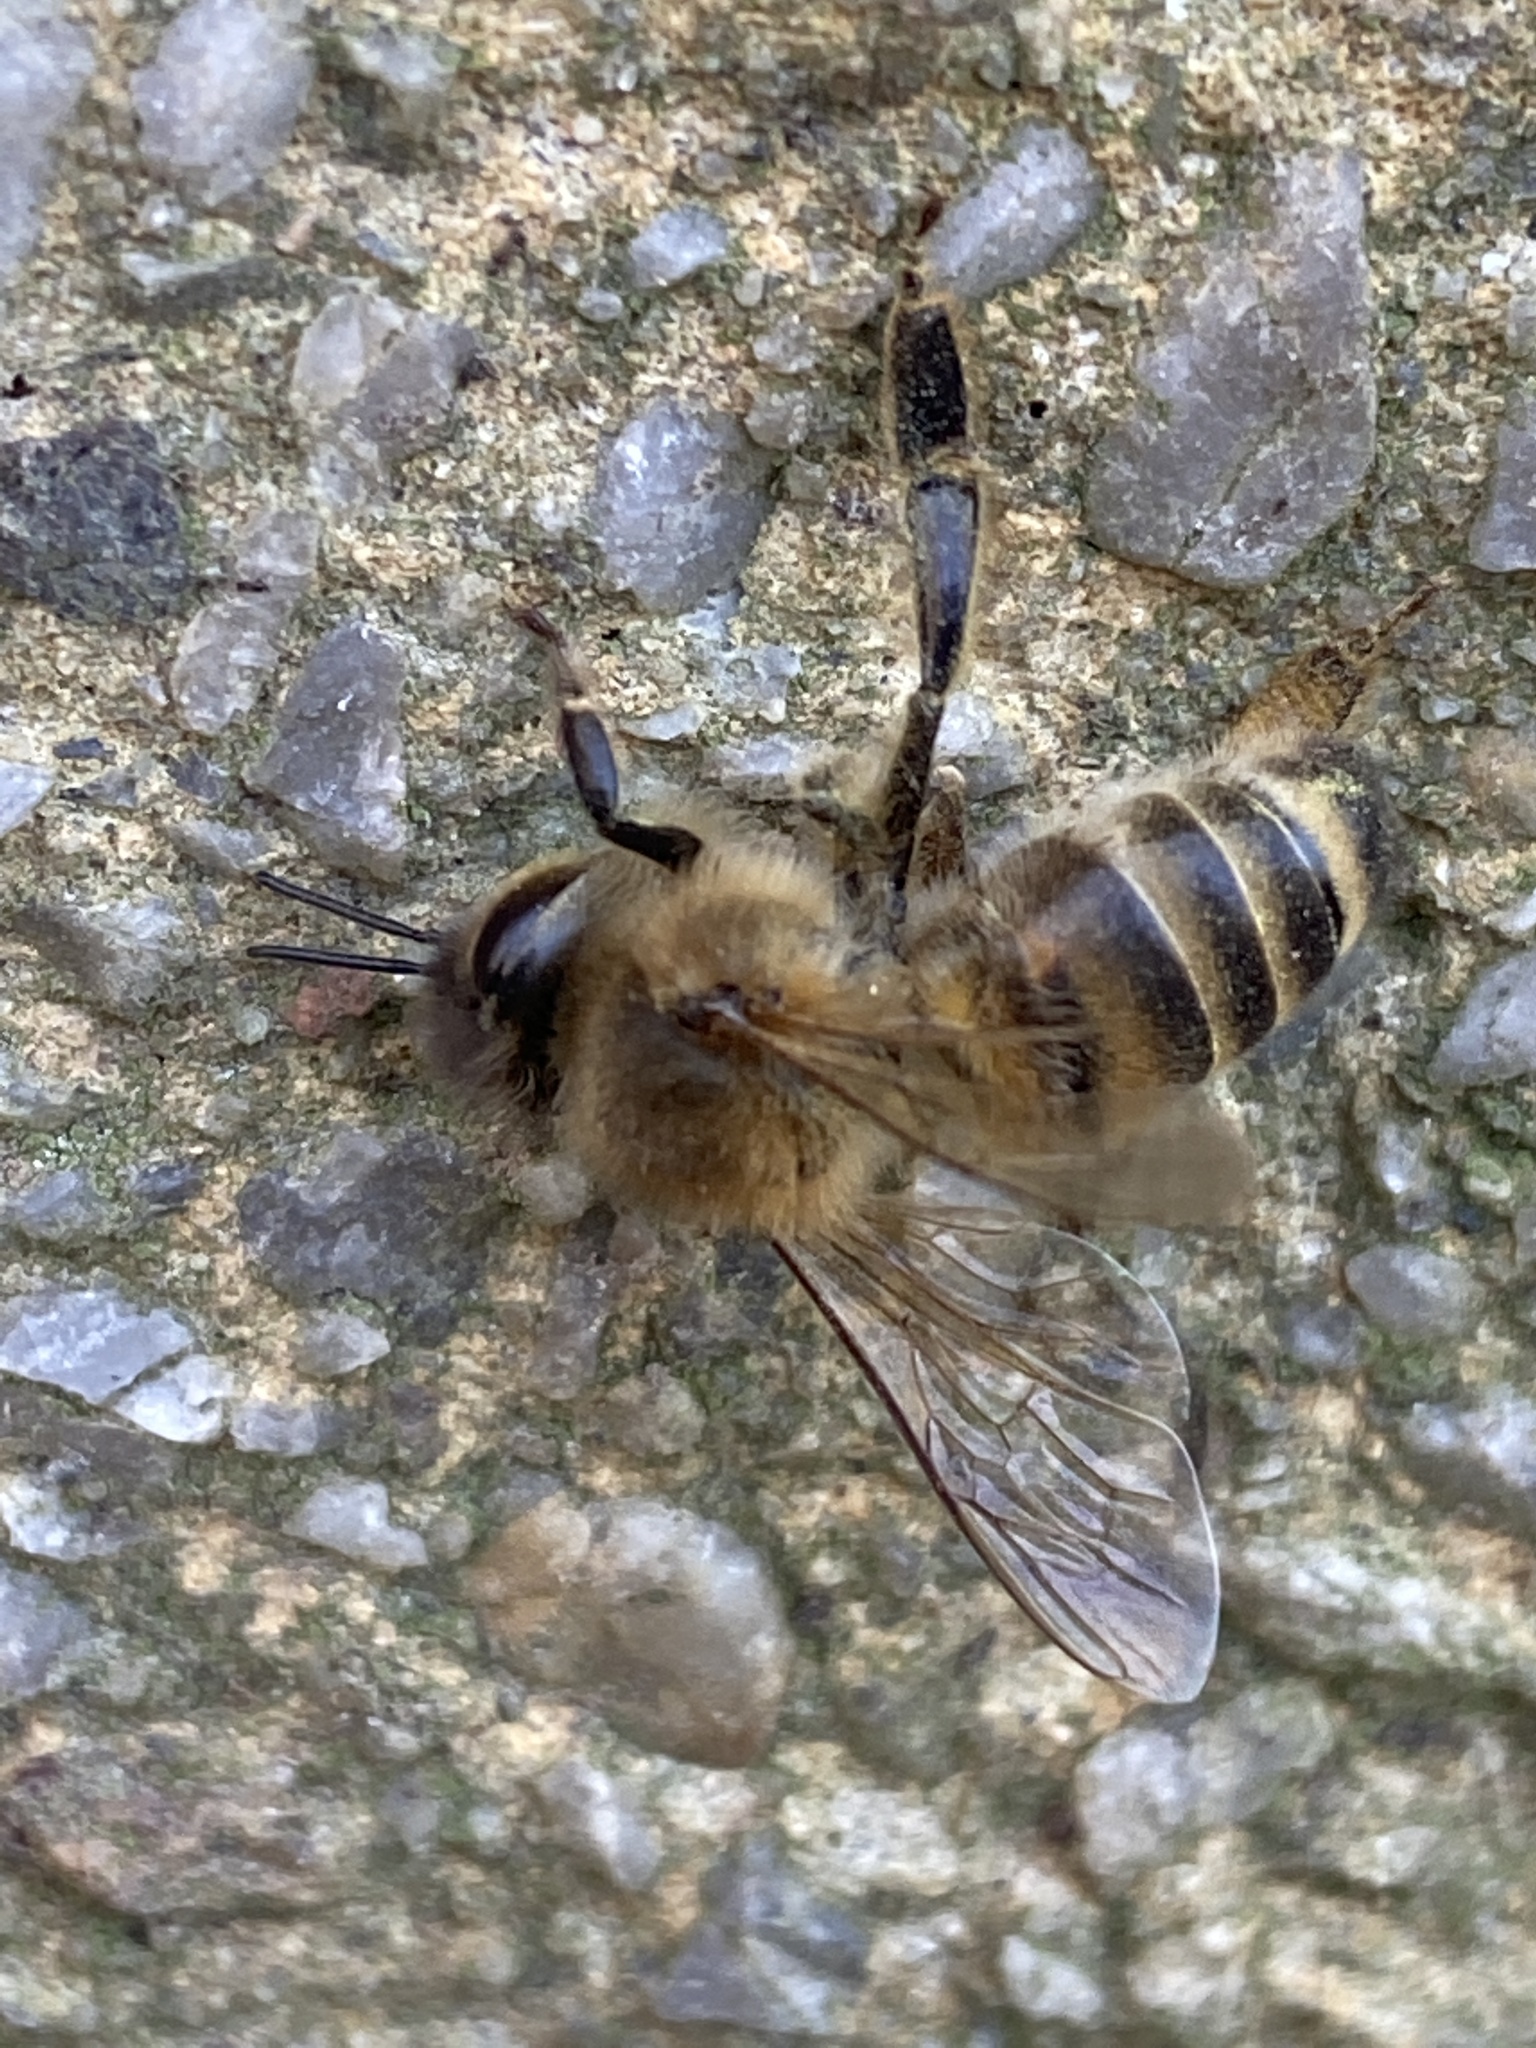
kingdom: Animalia
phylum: Arthropoda
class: Insecta
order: Hymenoptera
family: Apidae
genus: Apis
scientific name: Apis mellifera
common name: Honey bee
